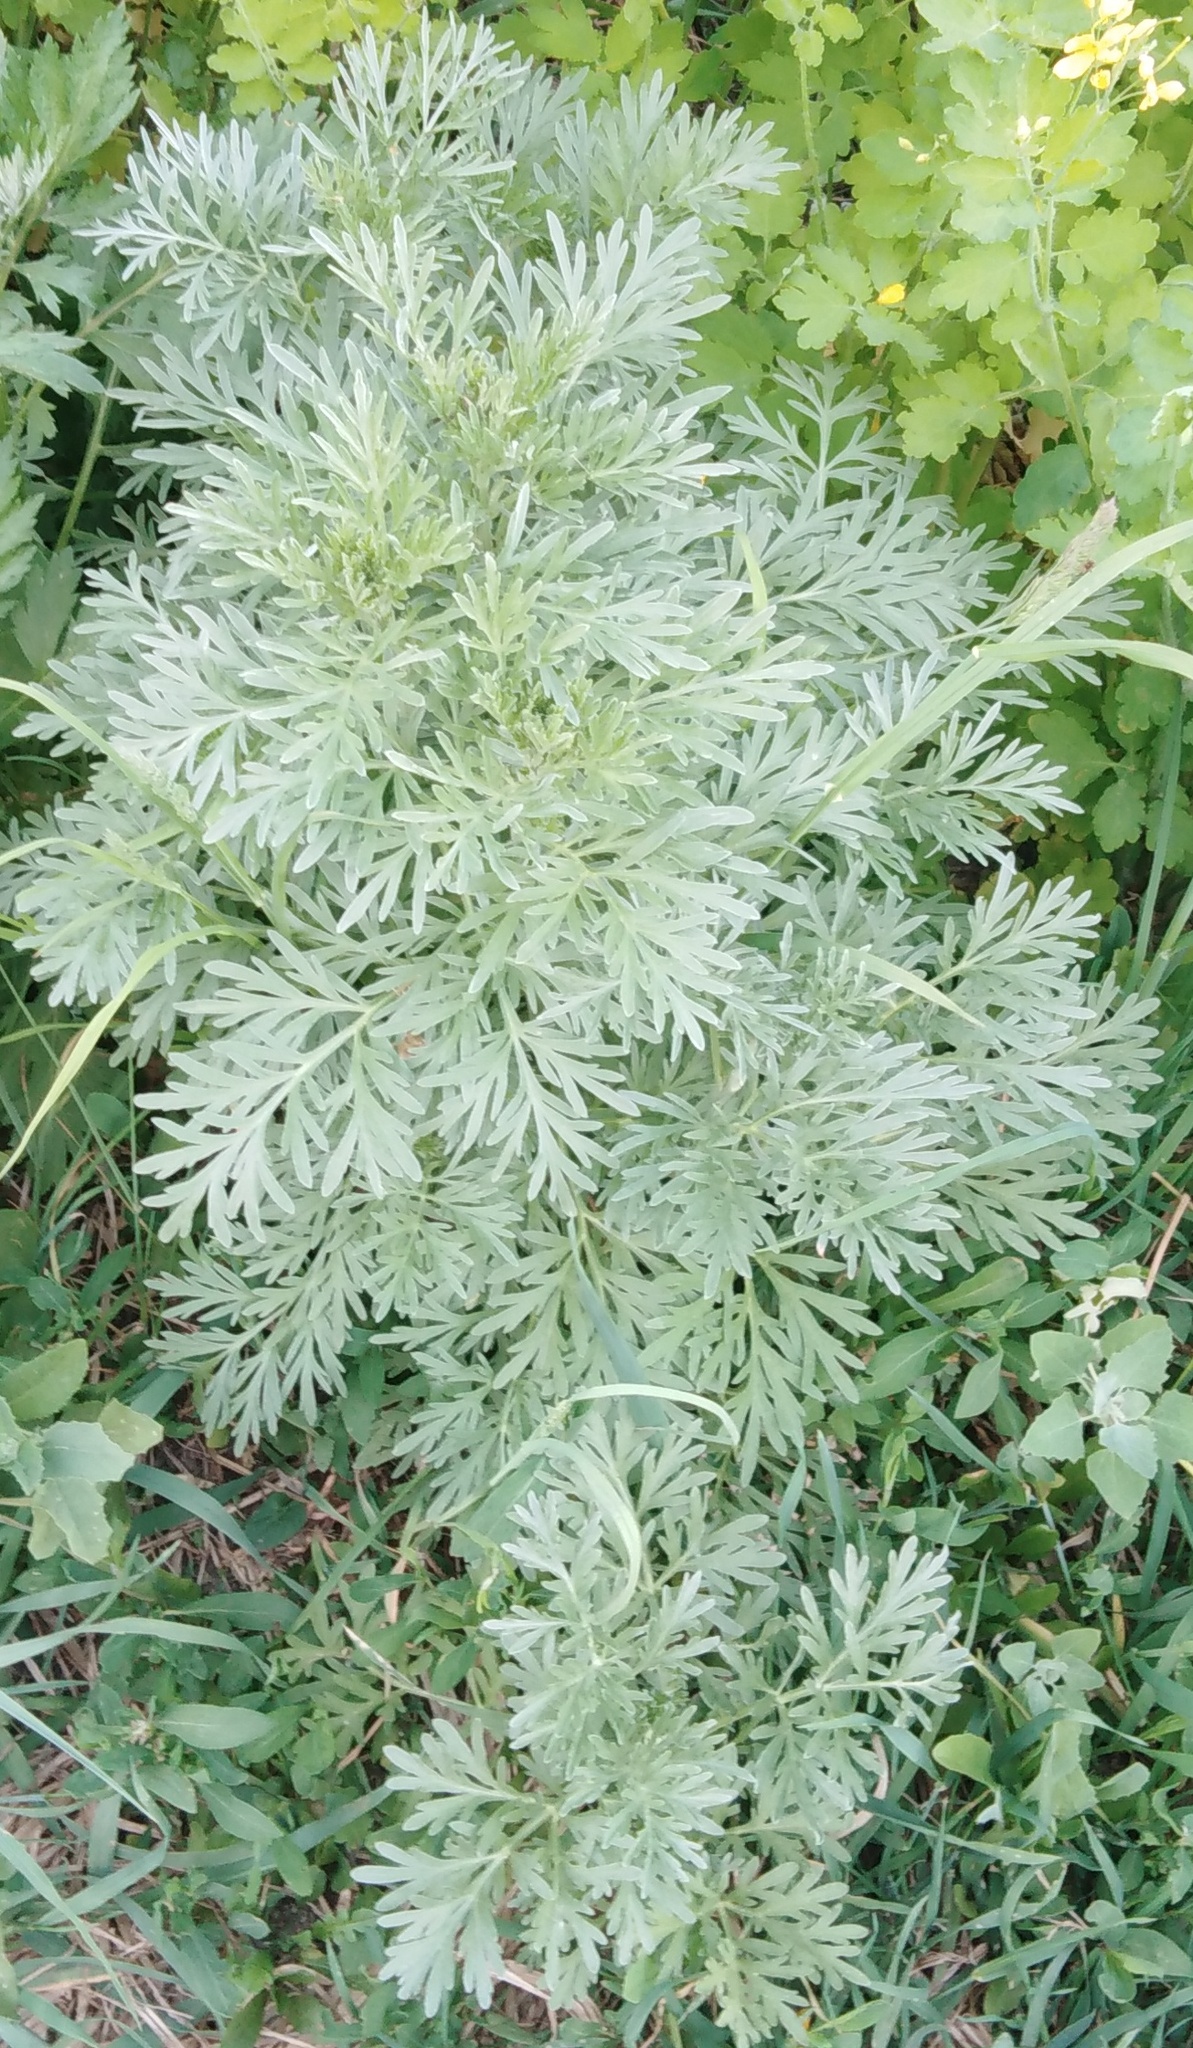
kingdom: Plantae
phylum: Tracheophyta
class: Magnoliopsida
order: Asterales
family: Asteraceae
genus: Artemisia
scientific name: Artemisia absinthium
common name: Wormwood
